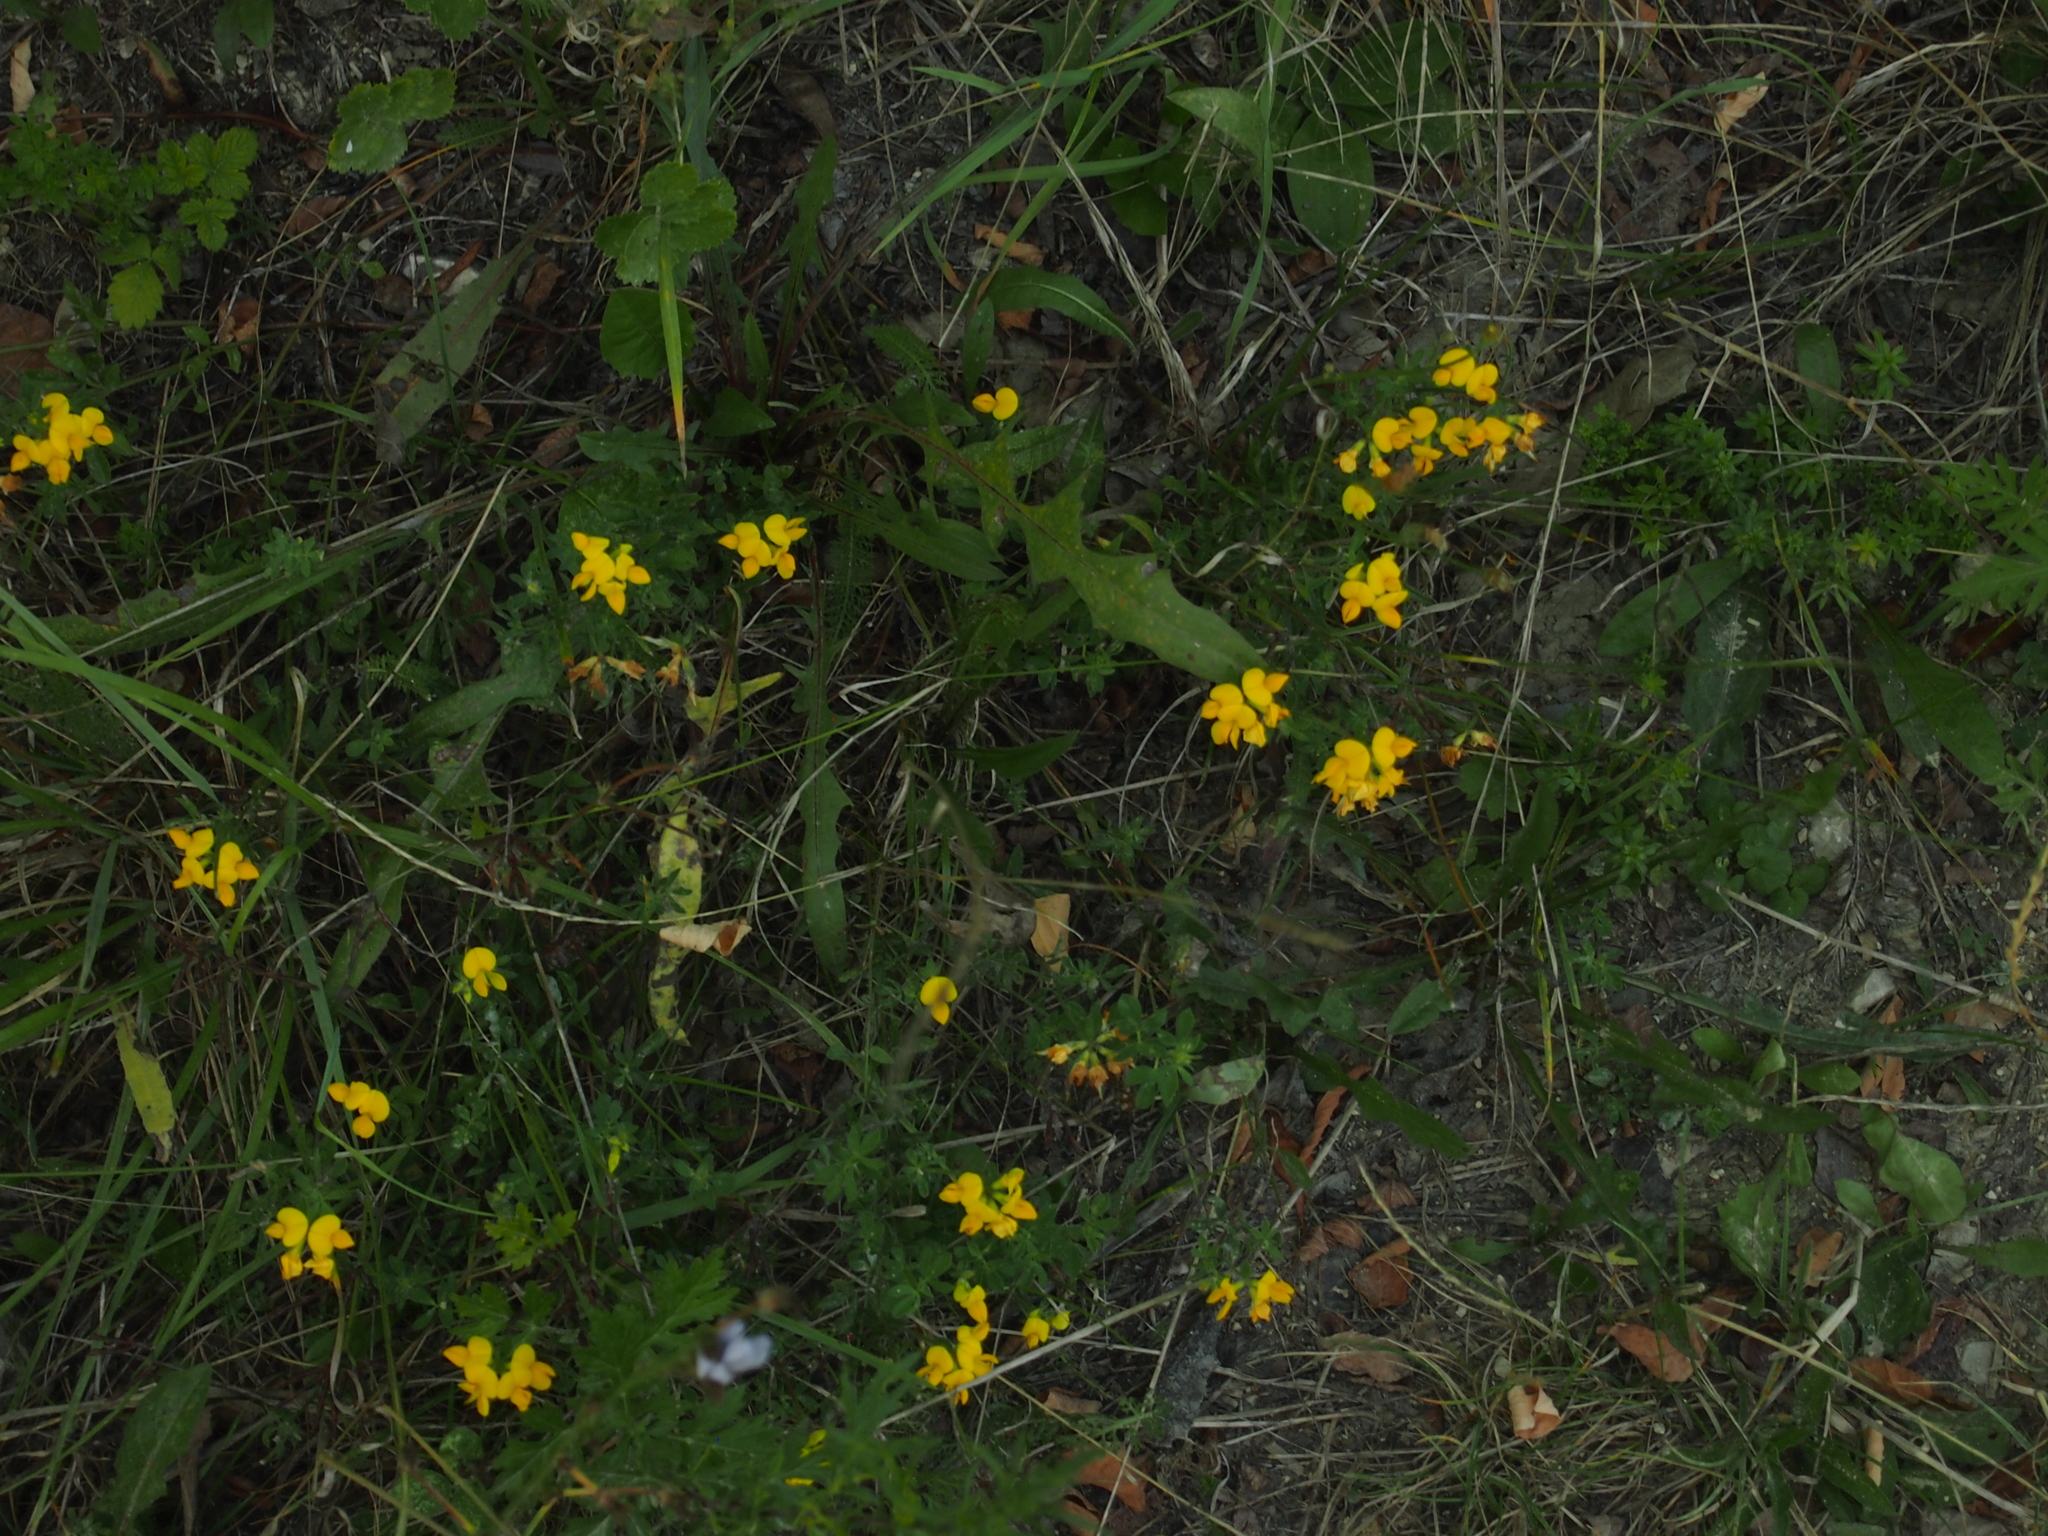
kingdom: Plantae
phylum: Tracheophyta
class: Magnoliopsida
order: Fabales
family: Fabaceae
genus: Lotus
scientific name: Lotus corniculatus
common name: Common bird's-foot-trefoil
